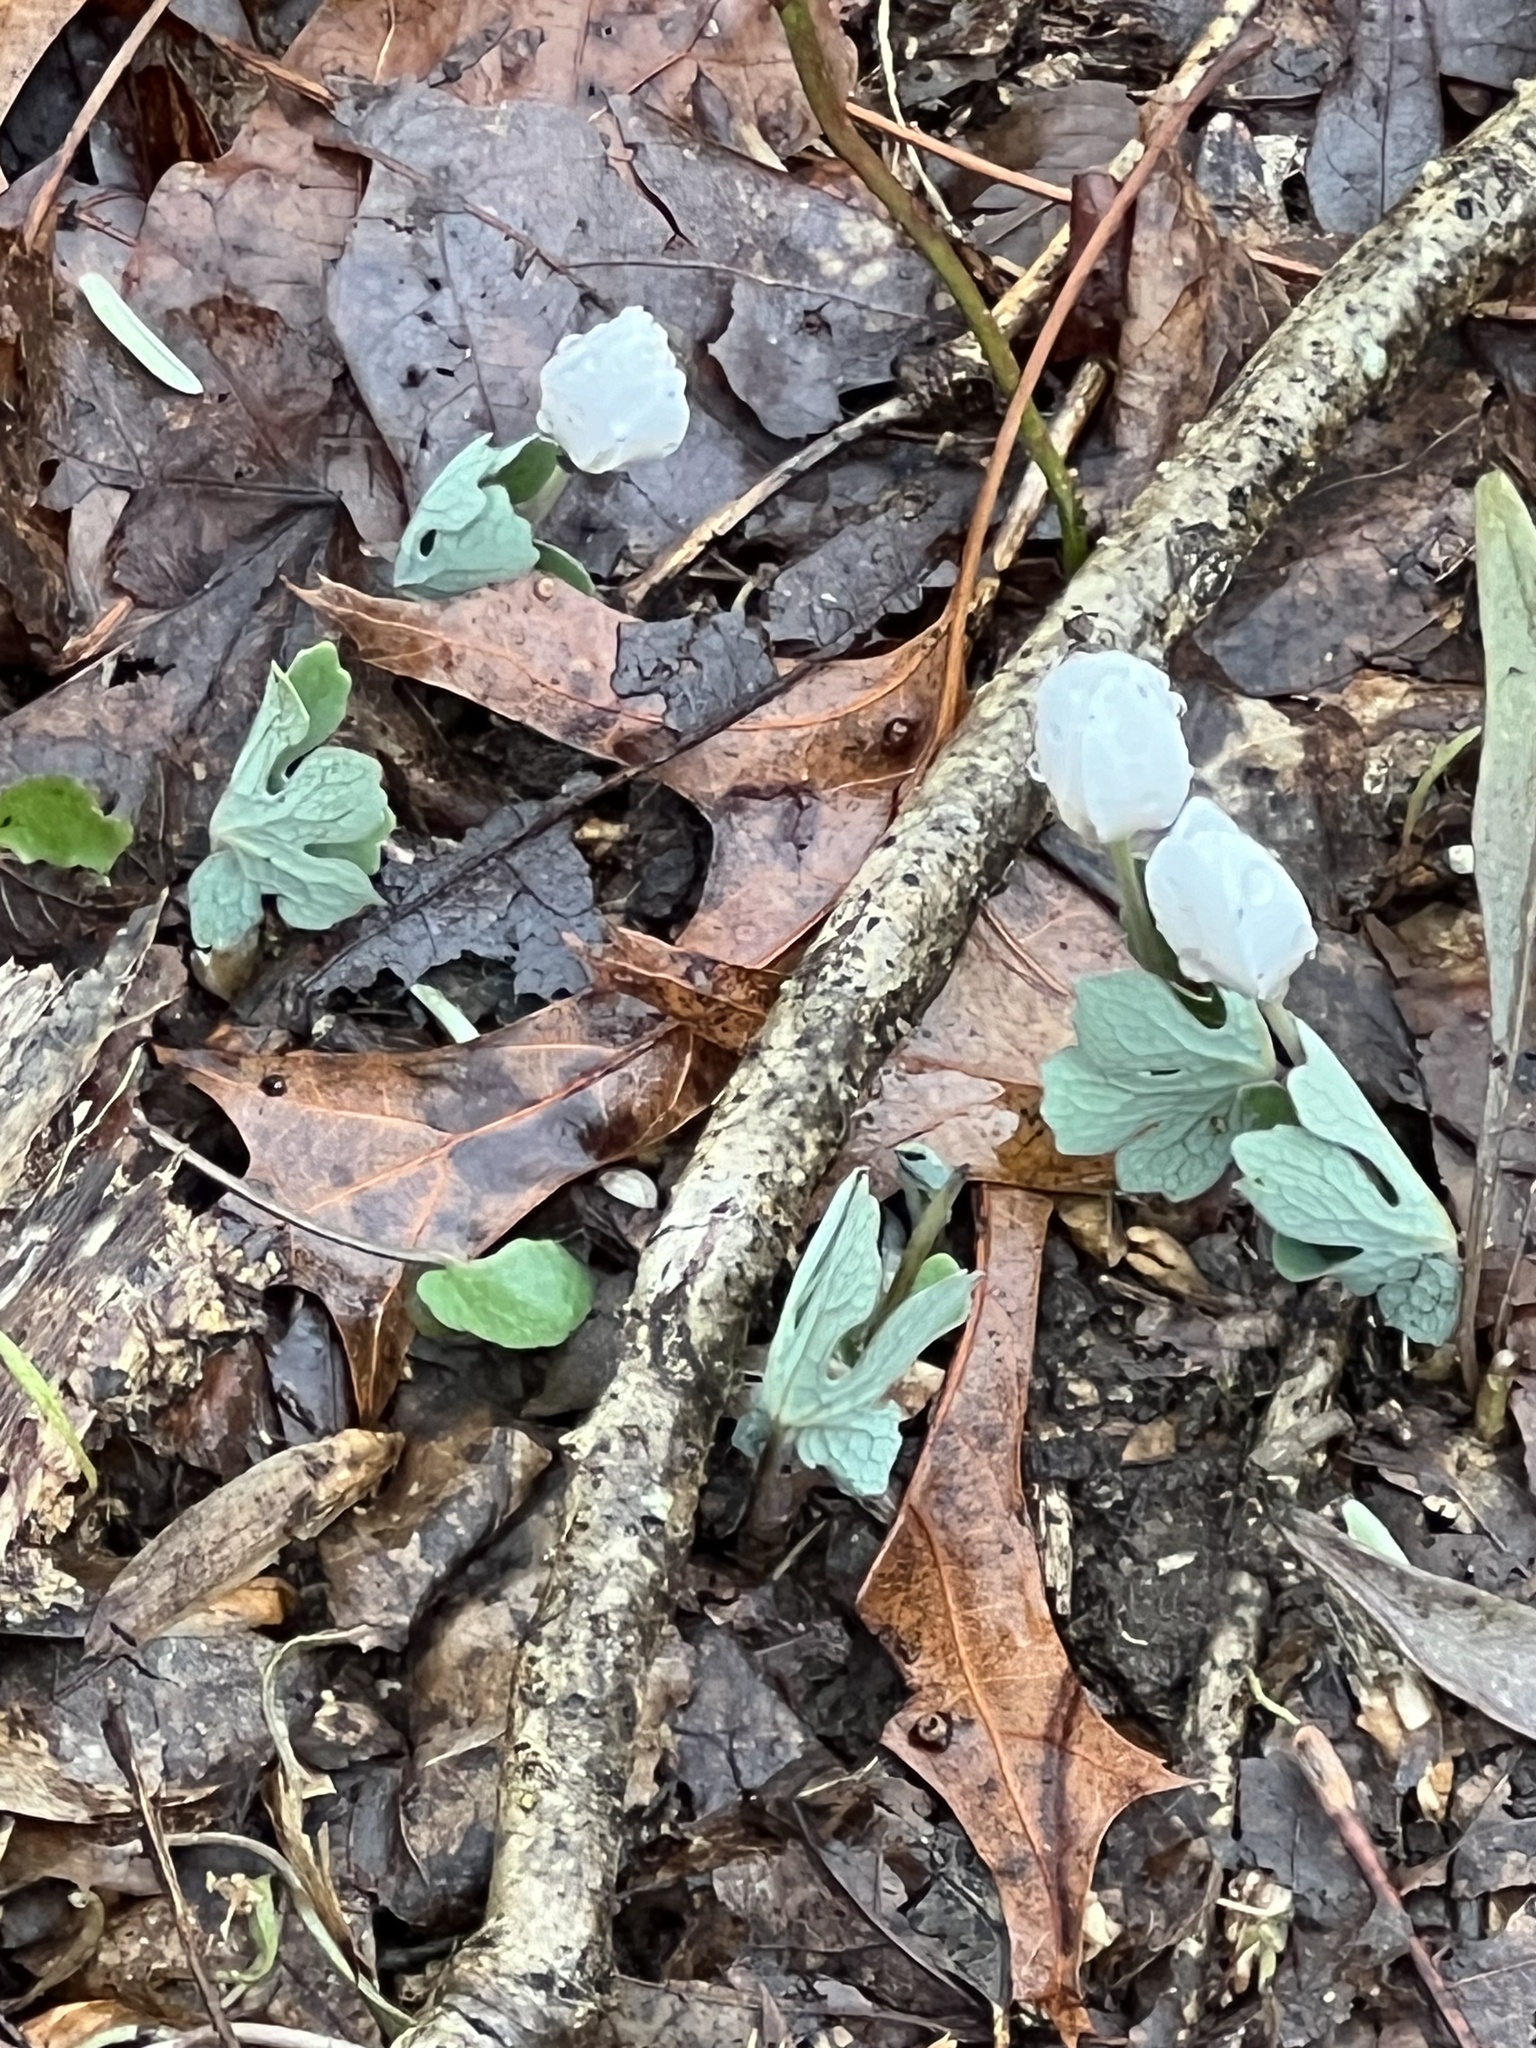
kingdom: Plantae
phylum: Tracheophyta
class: Magnoliopsida
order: Ranunculales
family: Papaveraceae
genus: Sanguinaria
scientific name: Sanguinaria canadensis
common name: Bloodroot
